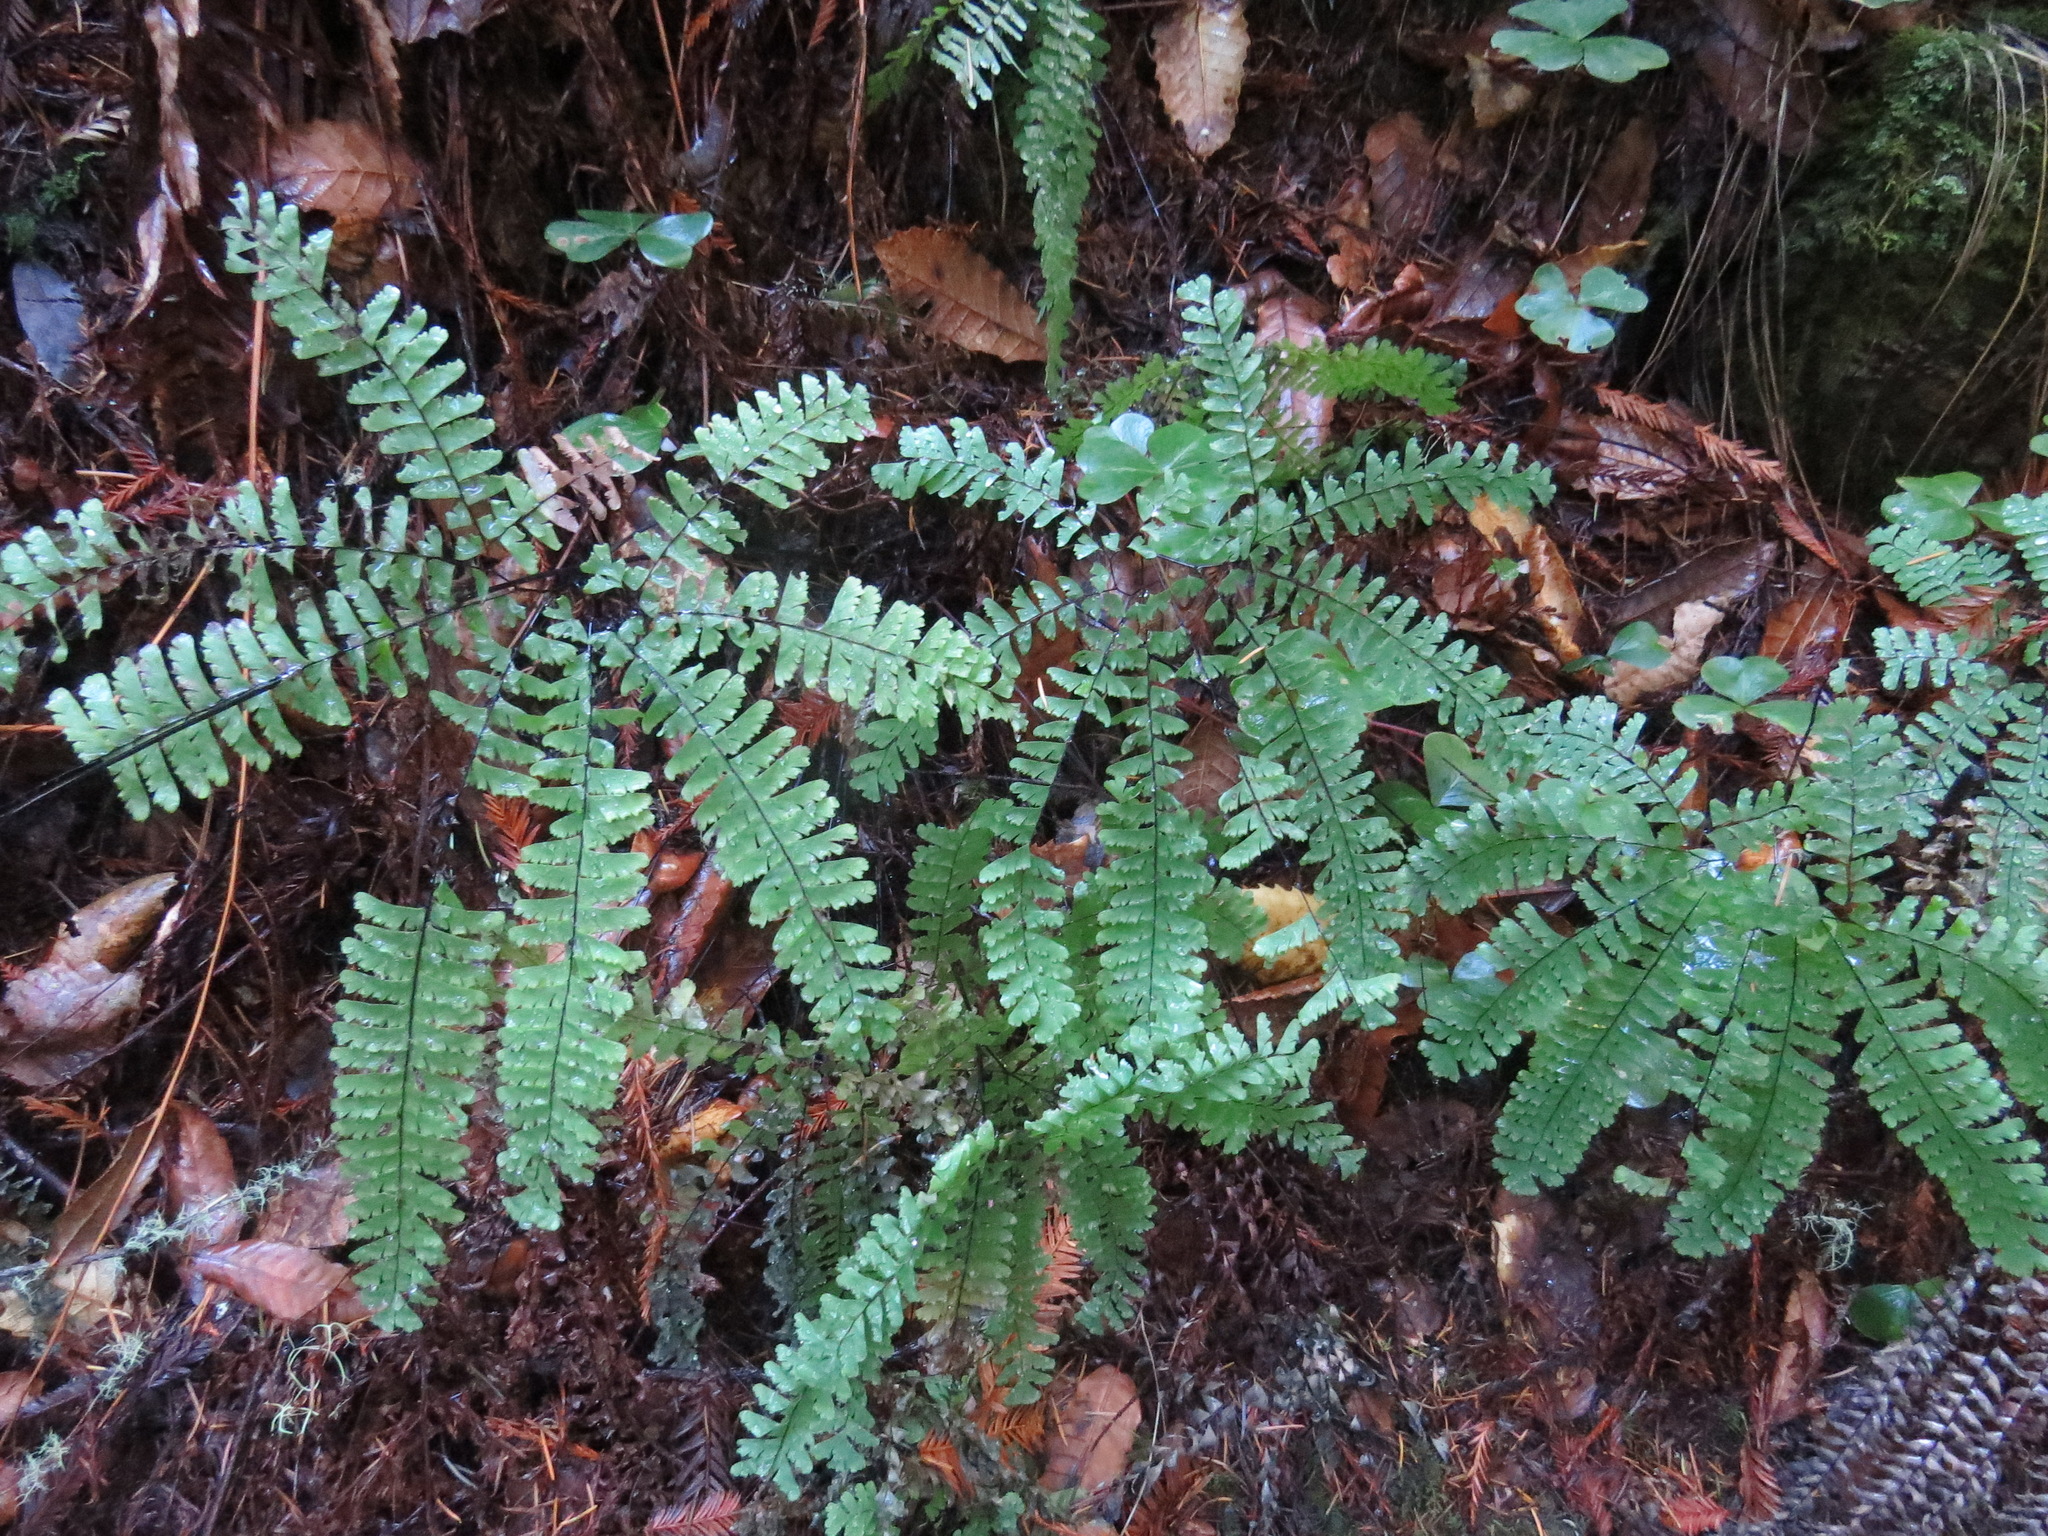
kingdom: Plantae
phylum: Tracheophyta
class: Polypodiopsida
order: Polypodiales
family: Pteridaceae
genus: Adiantum
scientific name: Adiantum aleuticum
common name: Aleutian maidenhair fern
